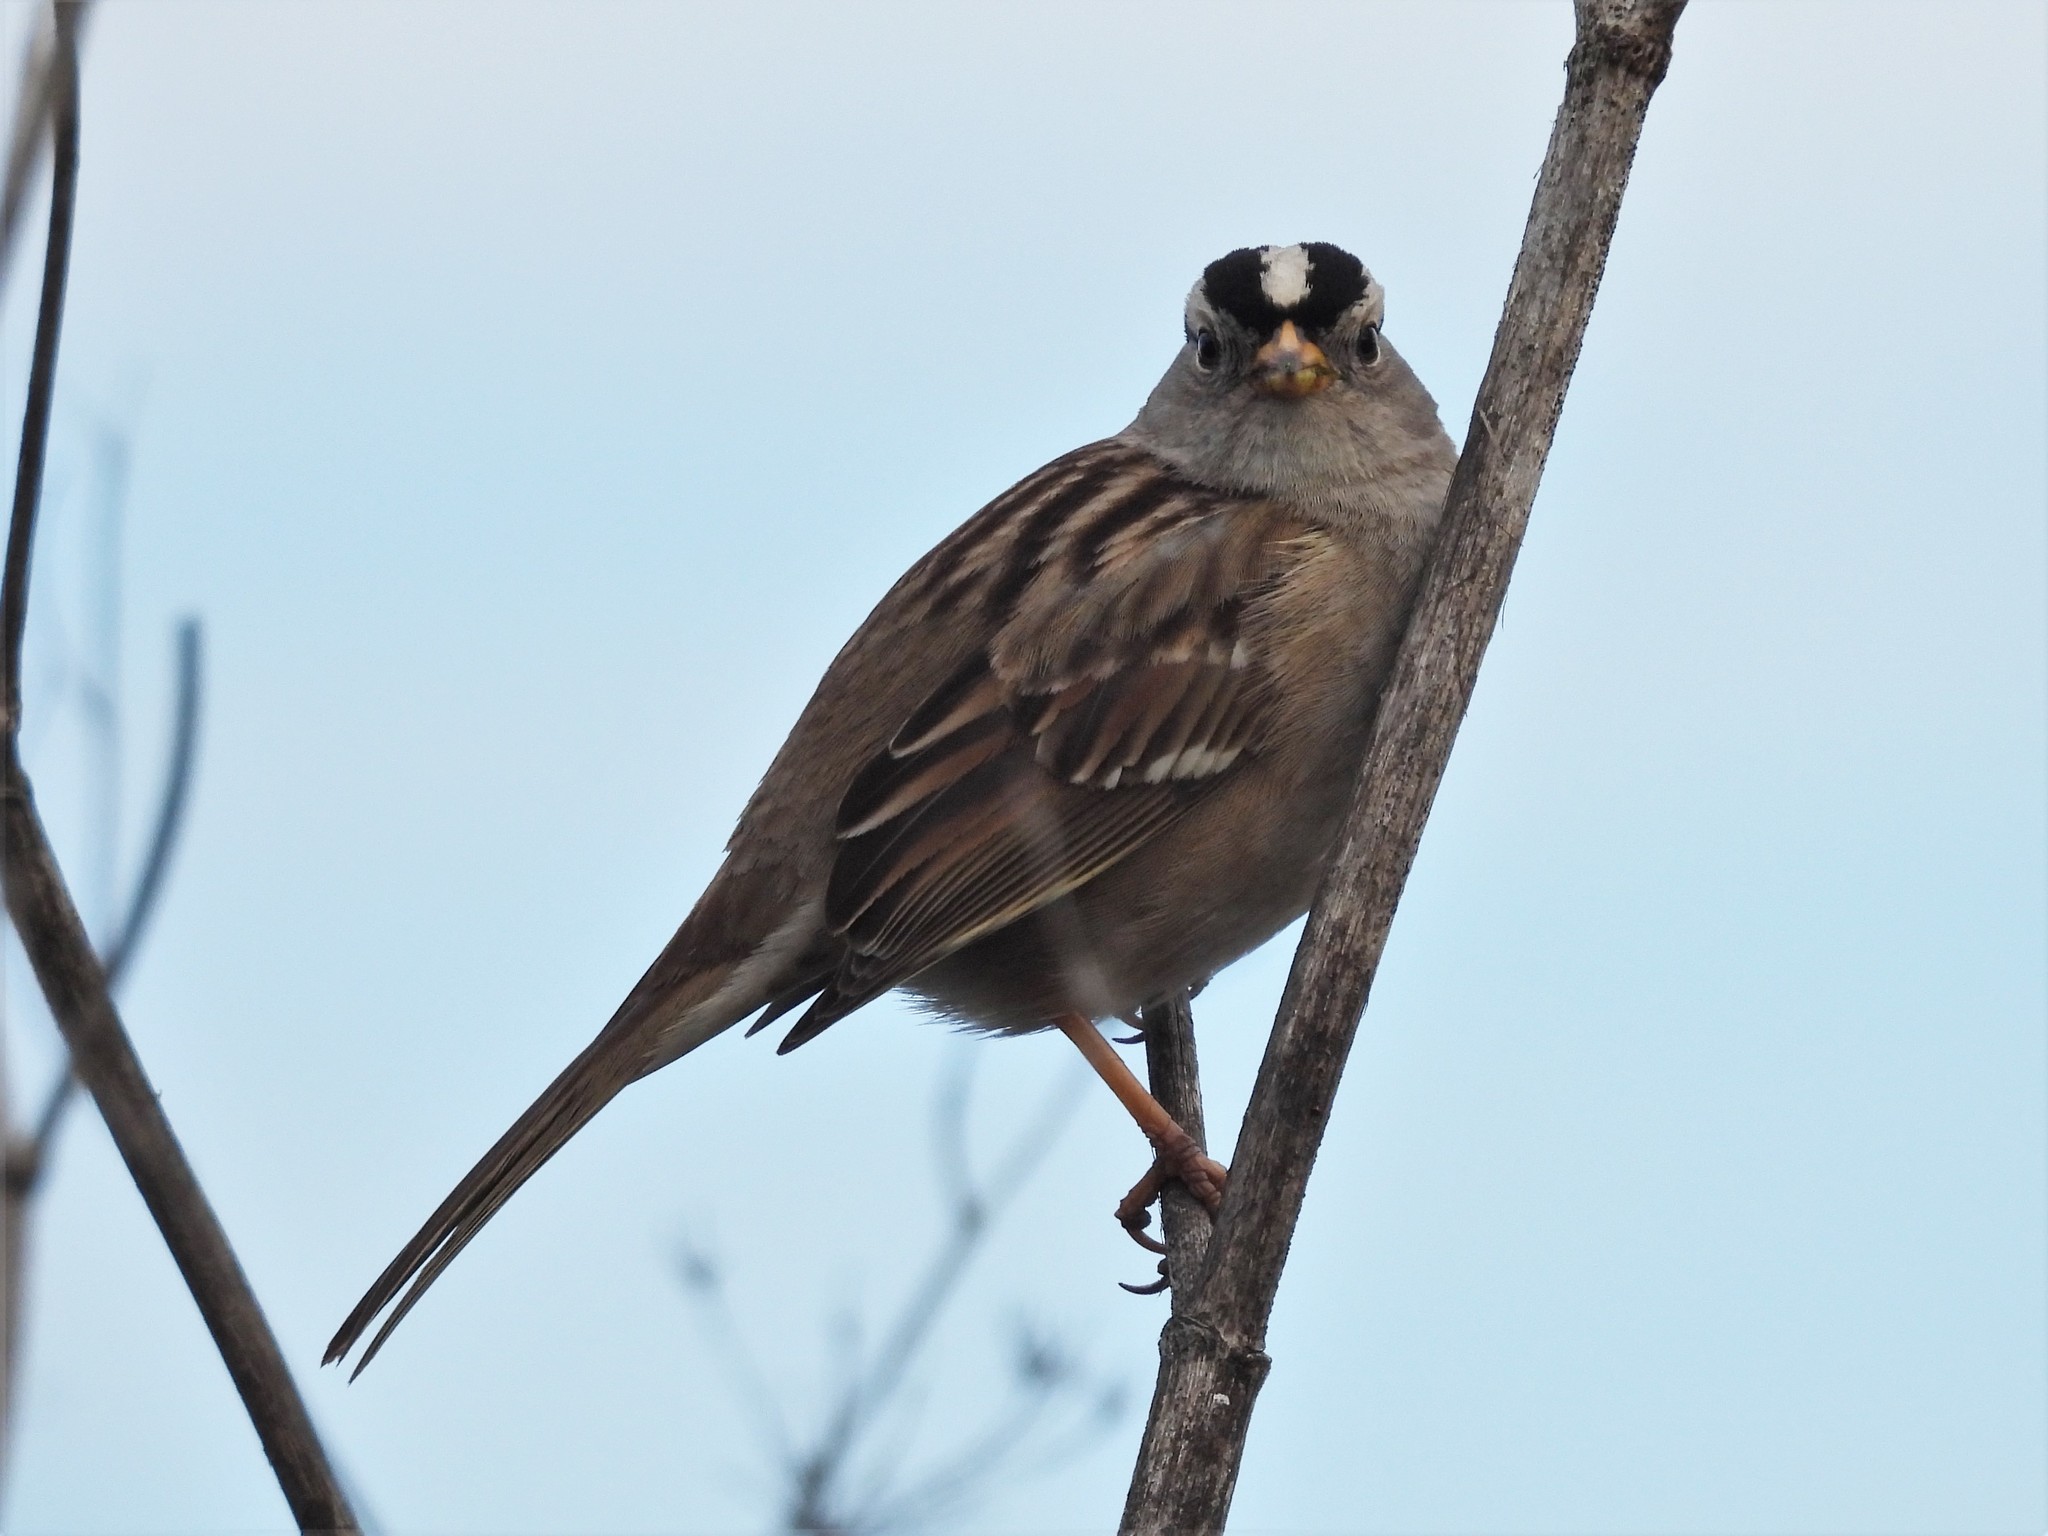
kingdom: Animalia
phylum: Chordata
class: Aves
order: Passeriformes
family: Passerellidae
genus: Zonotrichia
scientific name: Zonotrichia leucophrys
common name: White-crowned sparrow
